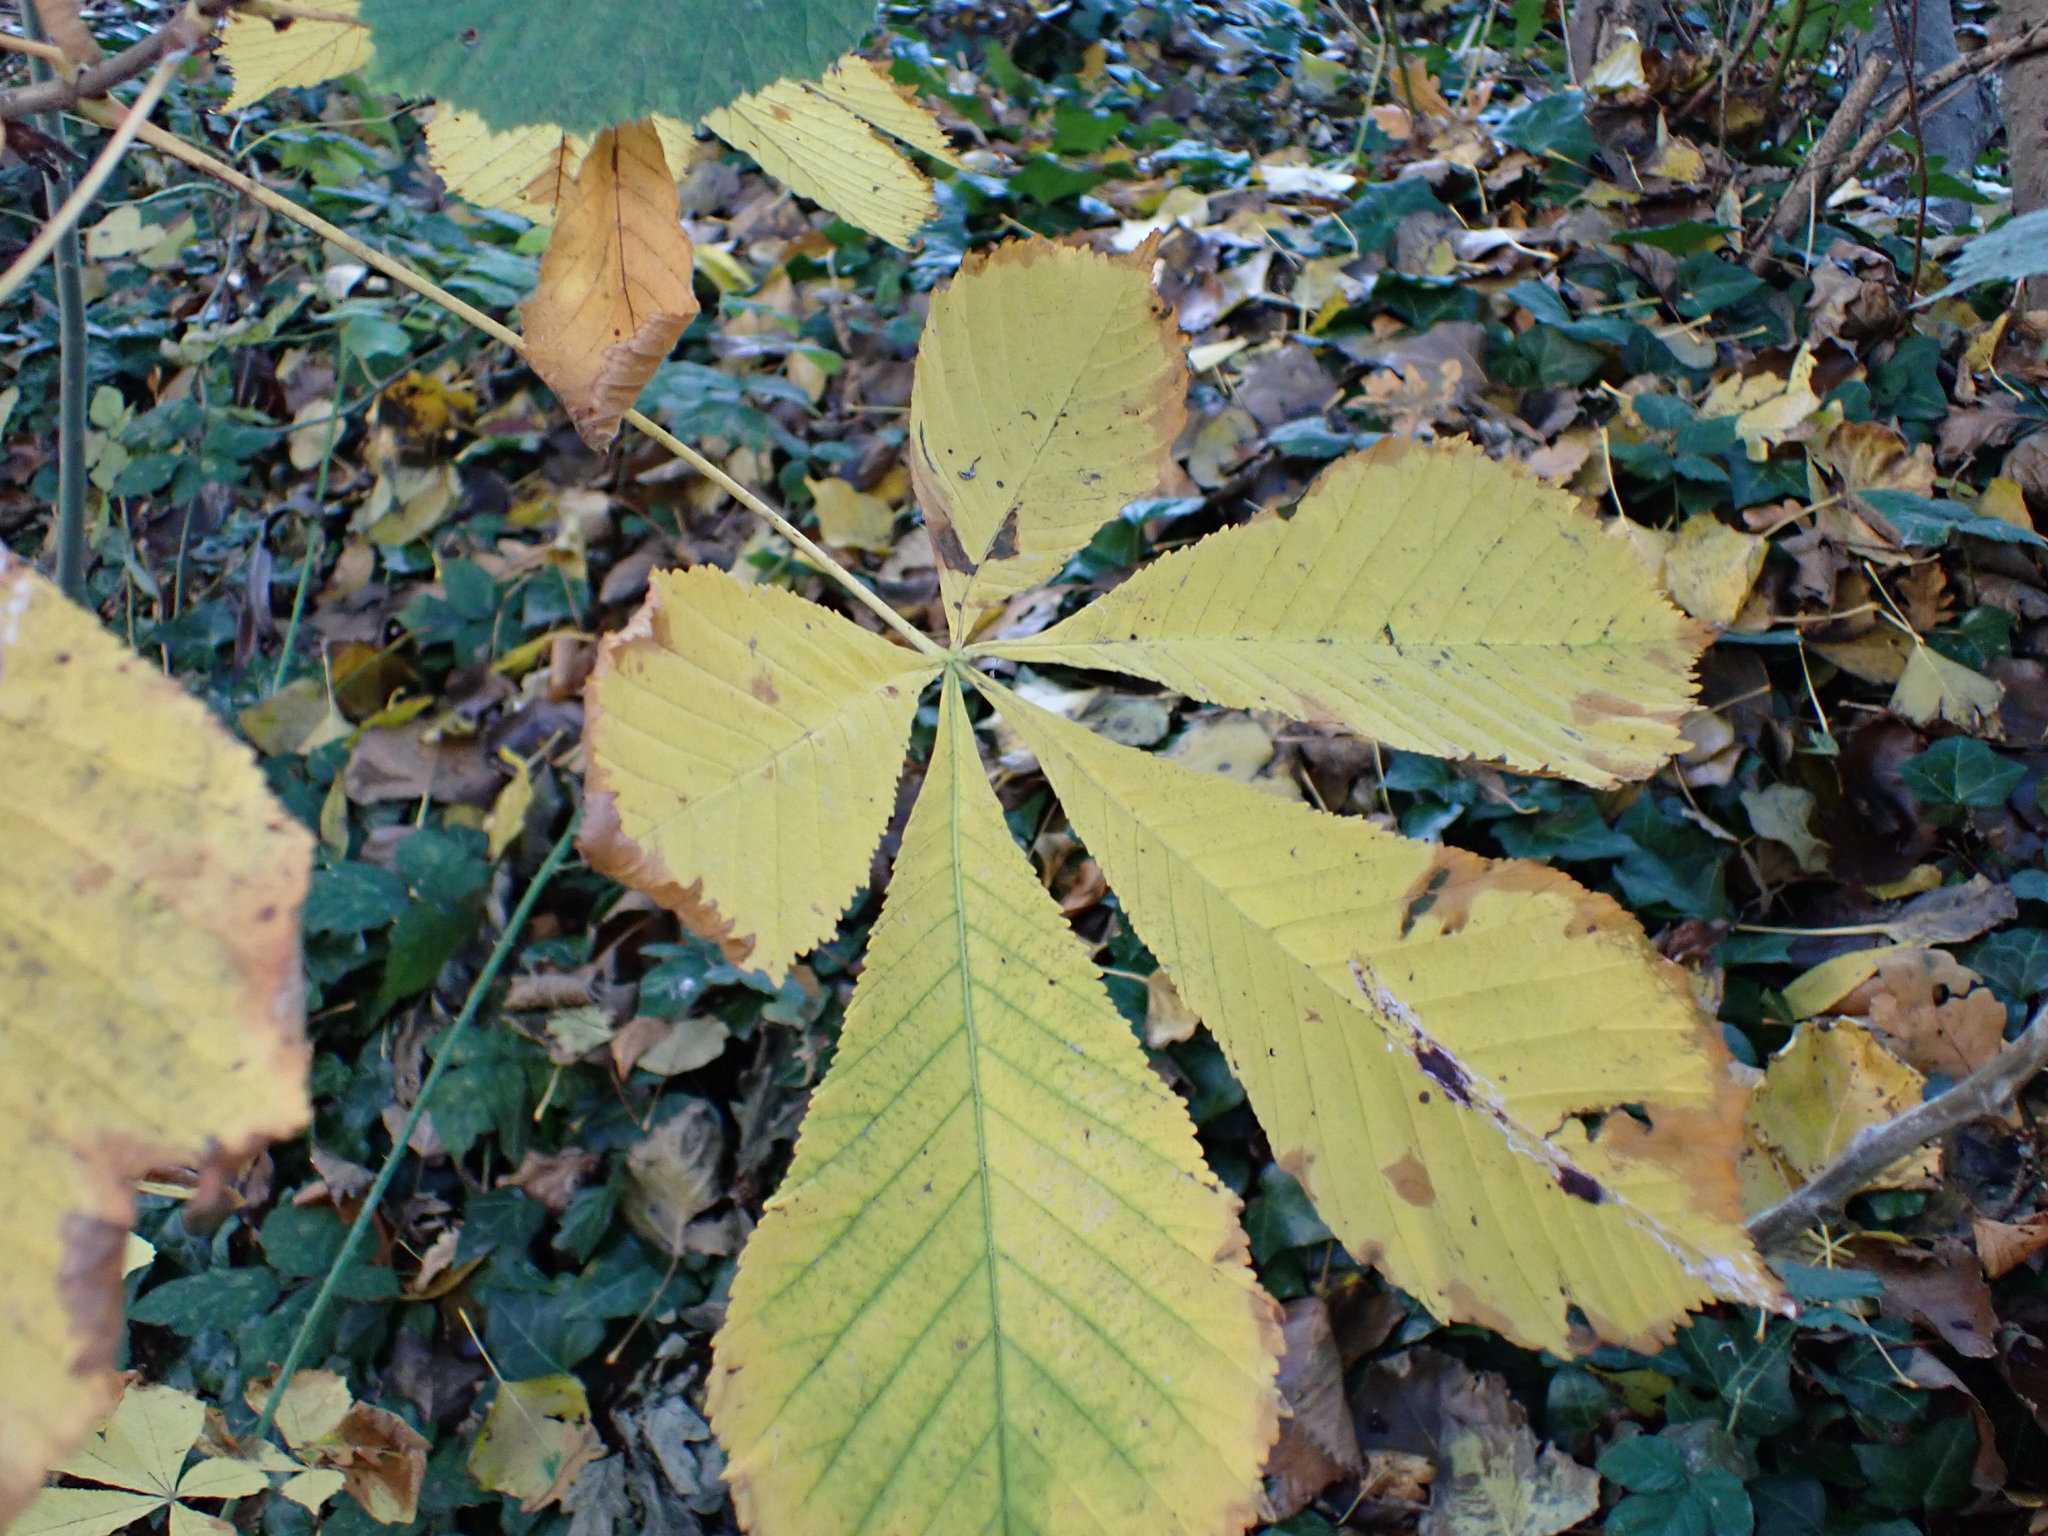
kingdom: Plantae
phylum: Tracheophyta
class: Magnoliopsida
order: Sapindales
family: Sapindaceae
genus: Aesculus
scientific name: Aesculus hippocastanum
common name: Horse-chestnut
